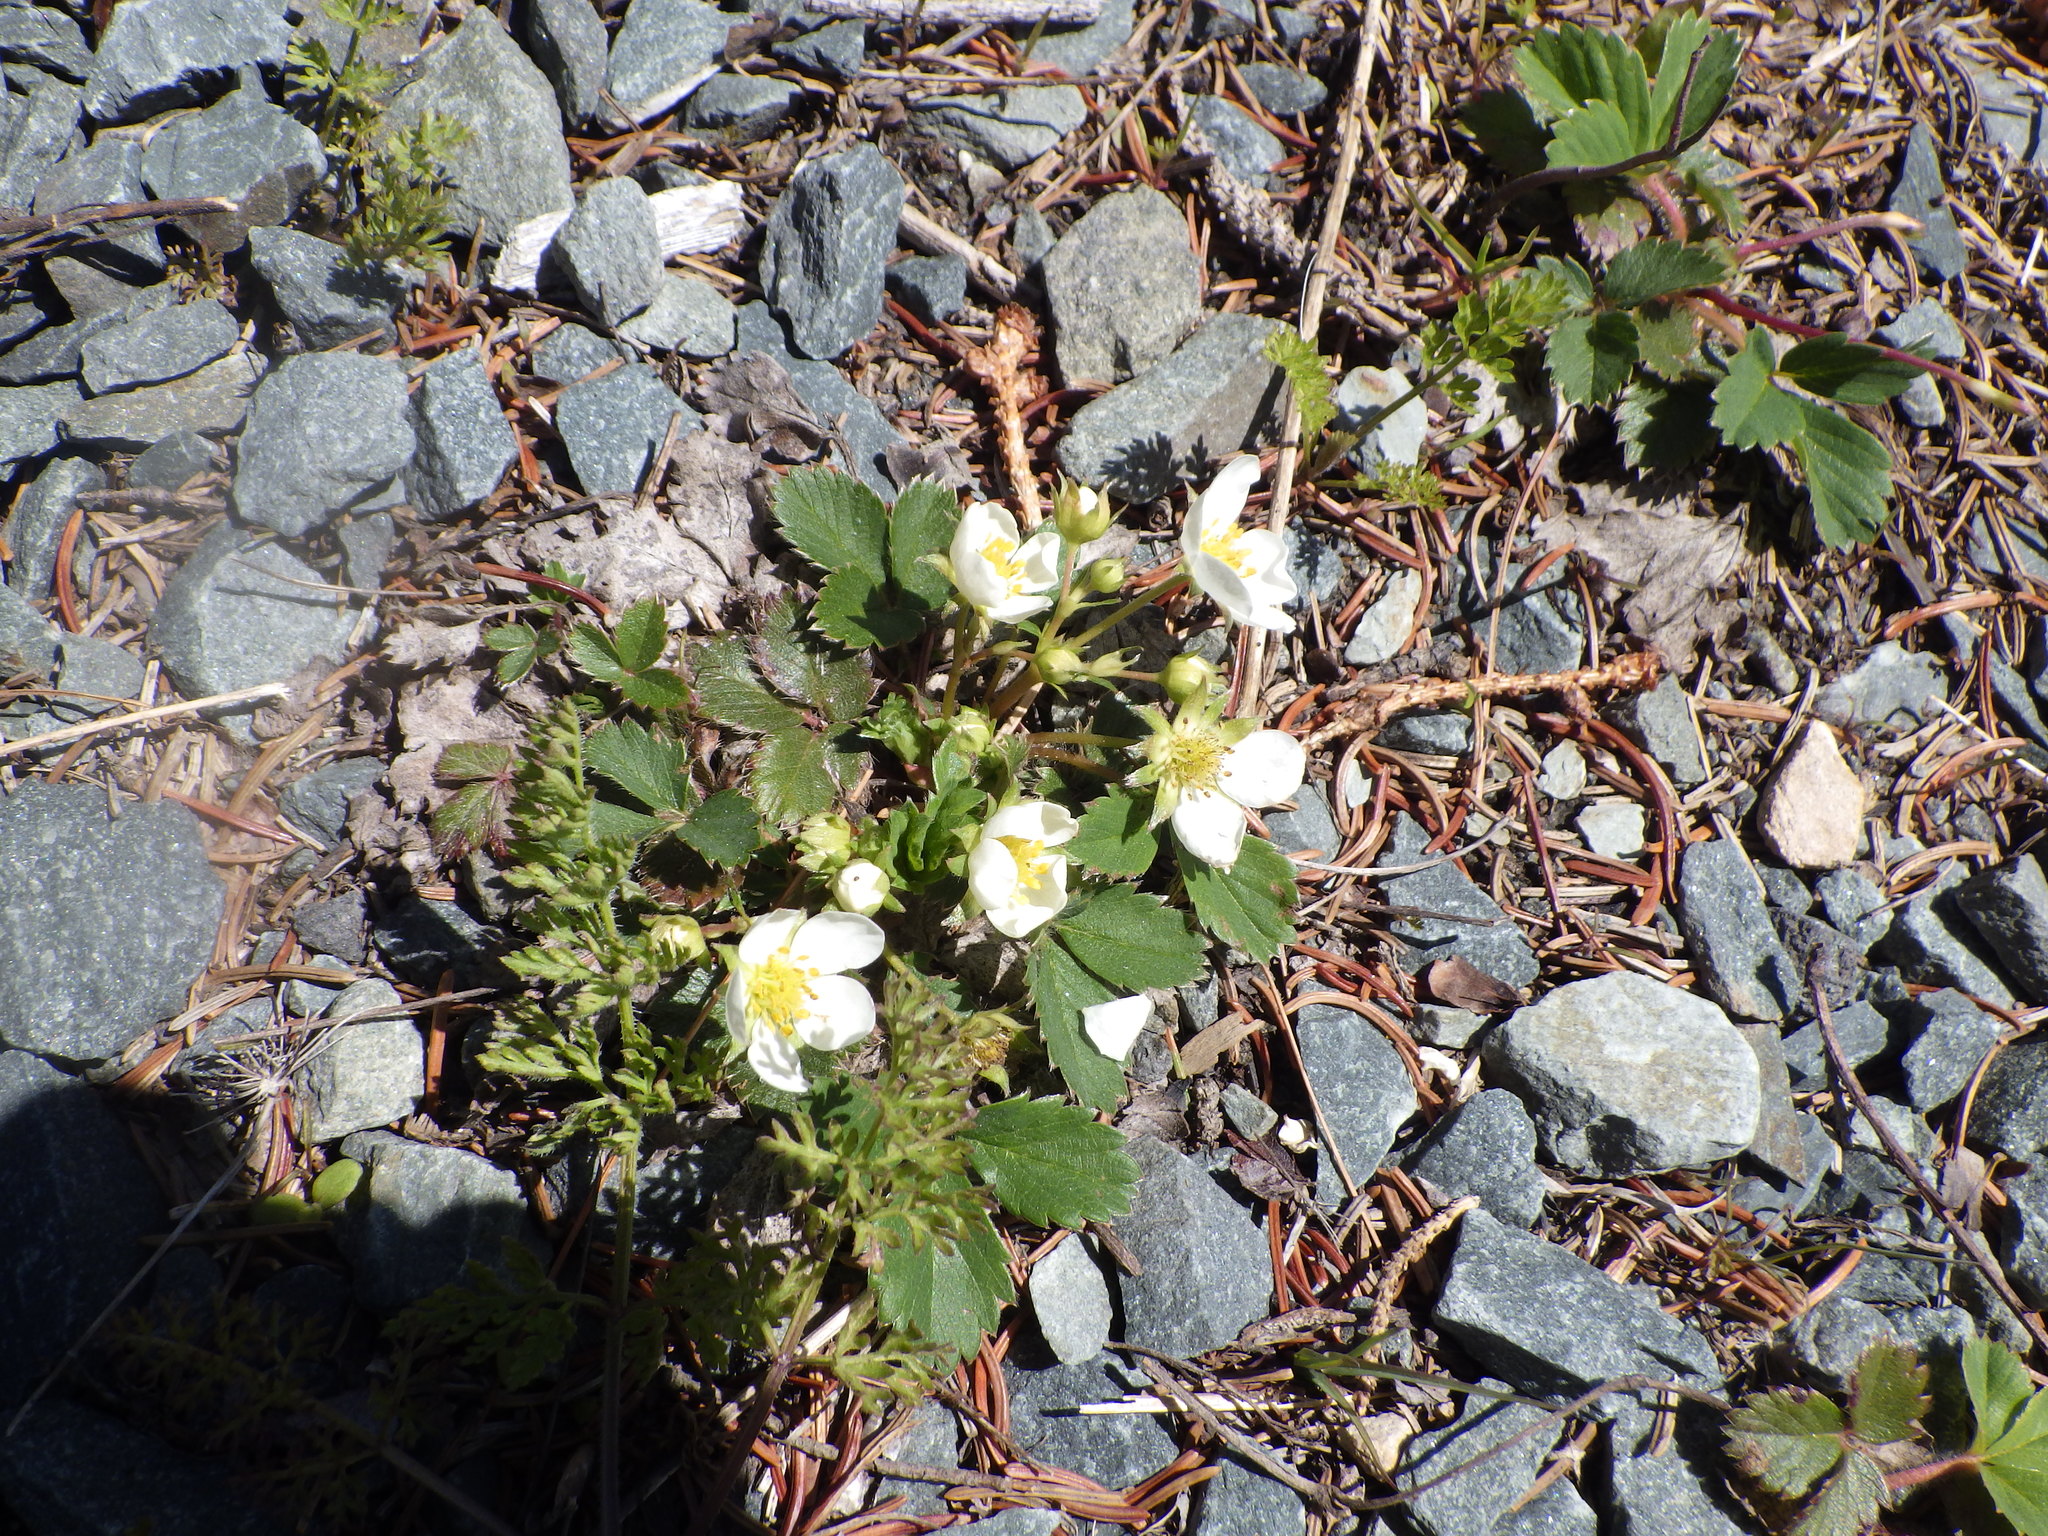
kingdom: Plantae
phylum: Tracheophyta
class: Magnoliopsida
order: Rosales
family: Rosaceae
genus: Fragaria
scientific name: Fragaria virginiana
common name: Thickleaved wild strawberry
